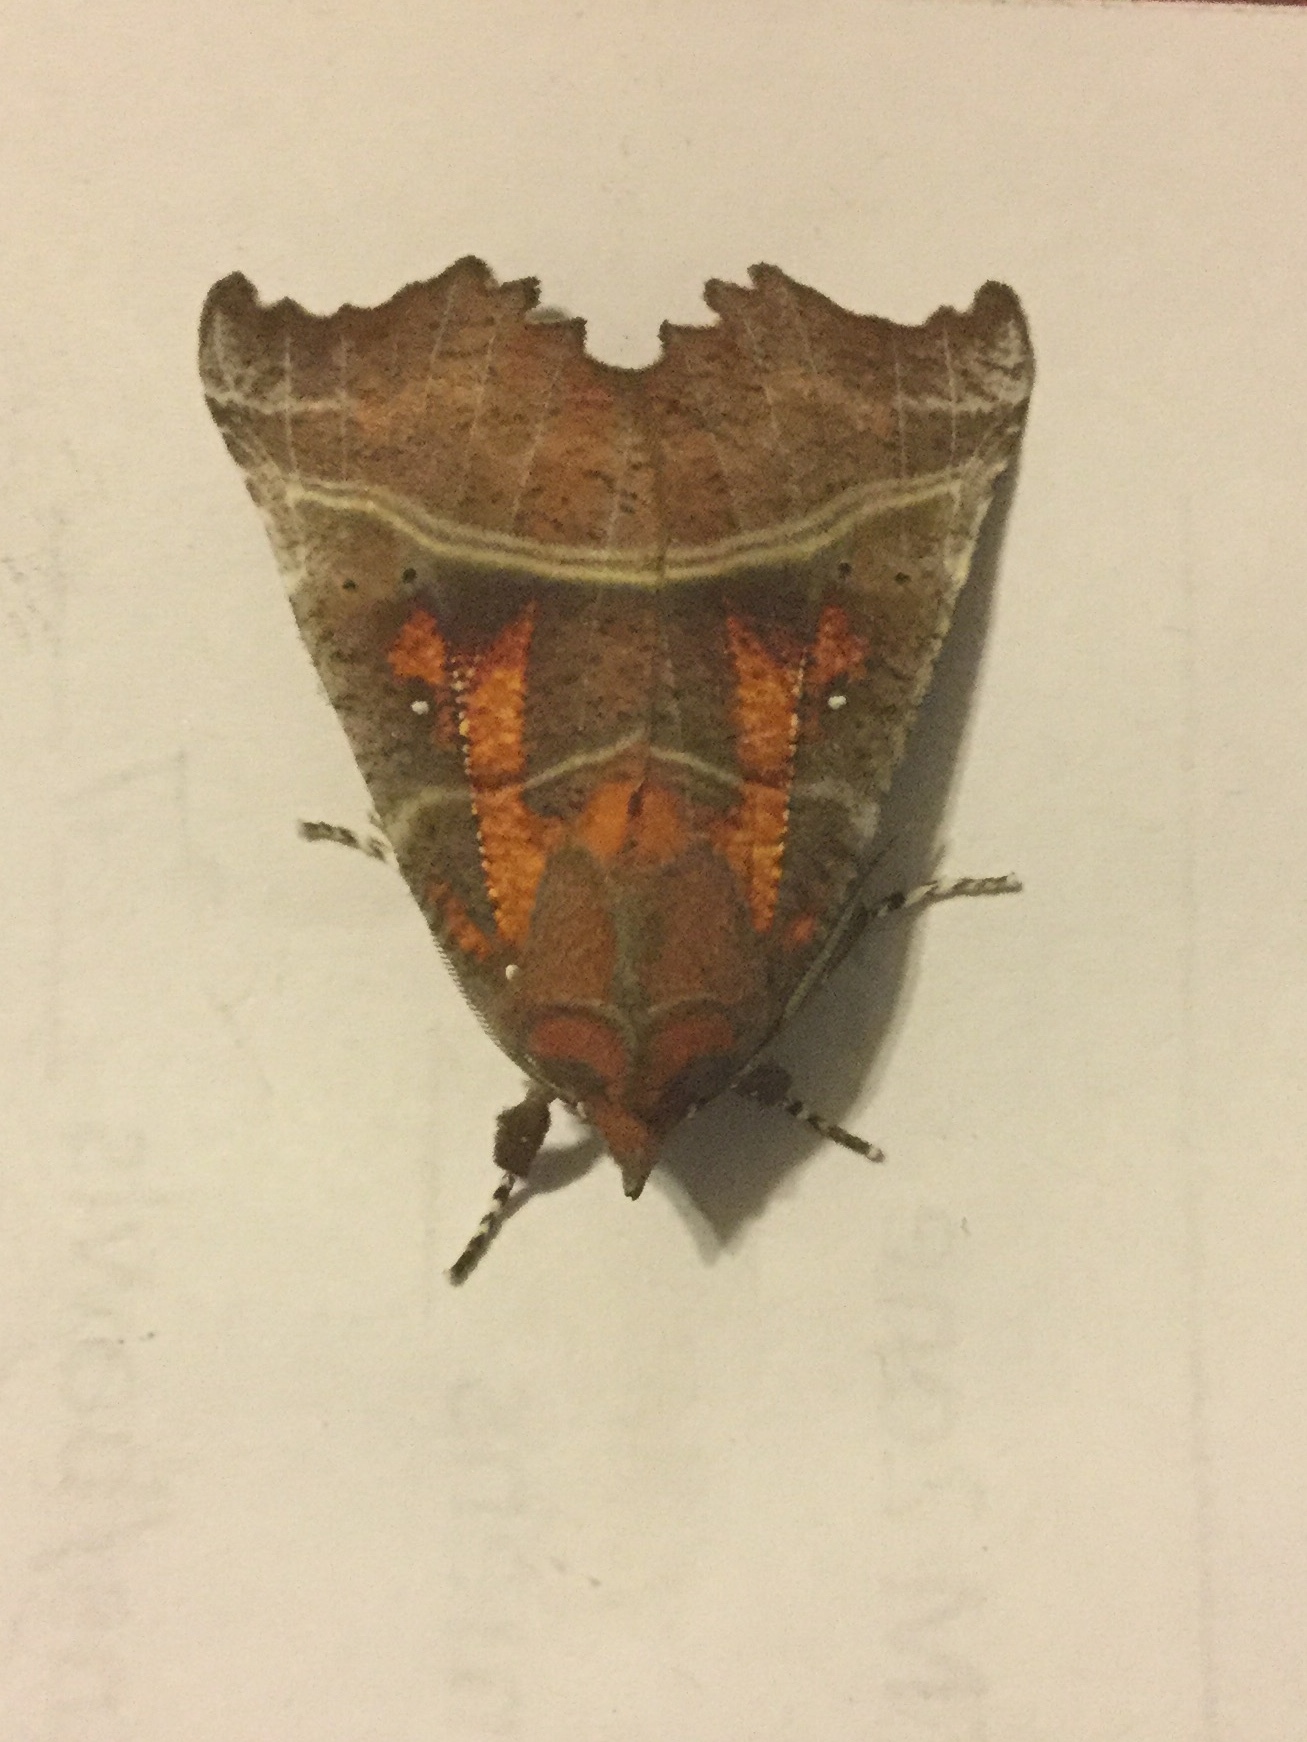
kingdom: Animalia
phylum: Arthropoda
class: Insecta
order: Lepidoptera
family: Erebidae
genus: Scoliopteryx
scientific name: Scoliopteryx libatrix
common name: Herald
